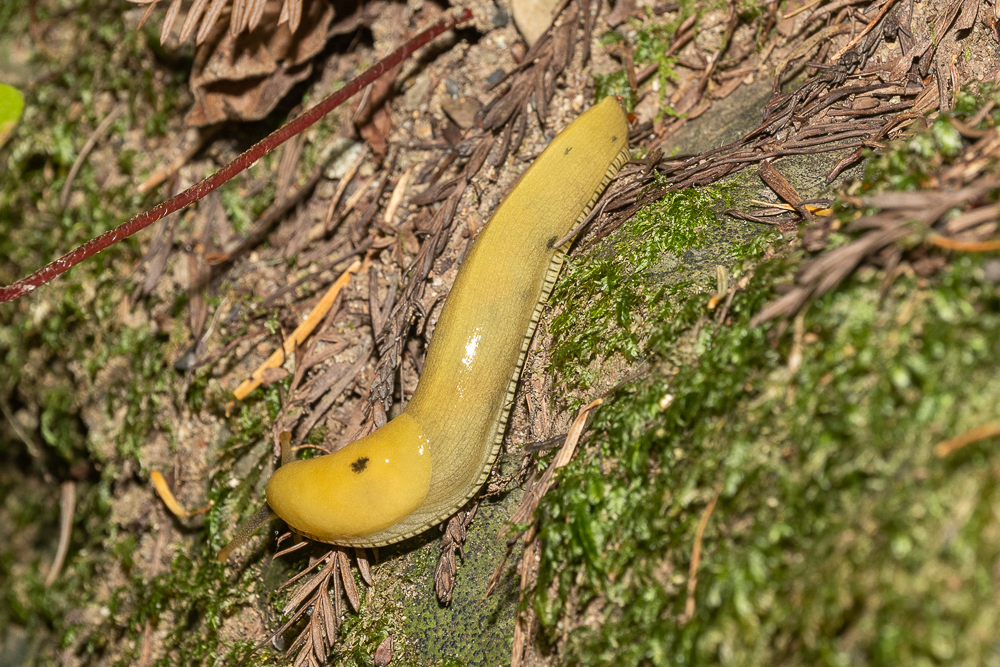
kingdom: Animalia
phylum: Mollusca
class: Gastropoda
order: Stylommatophora
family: Ariolimacidae
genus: Ariolimax
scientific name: Ariolimax buttoni
